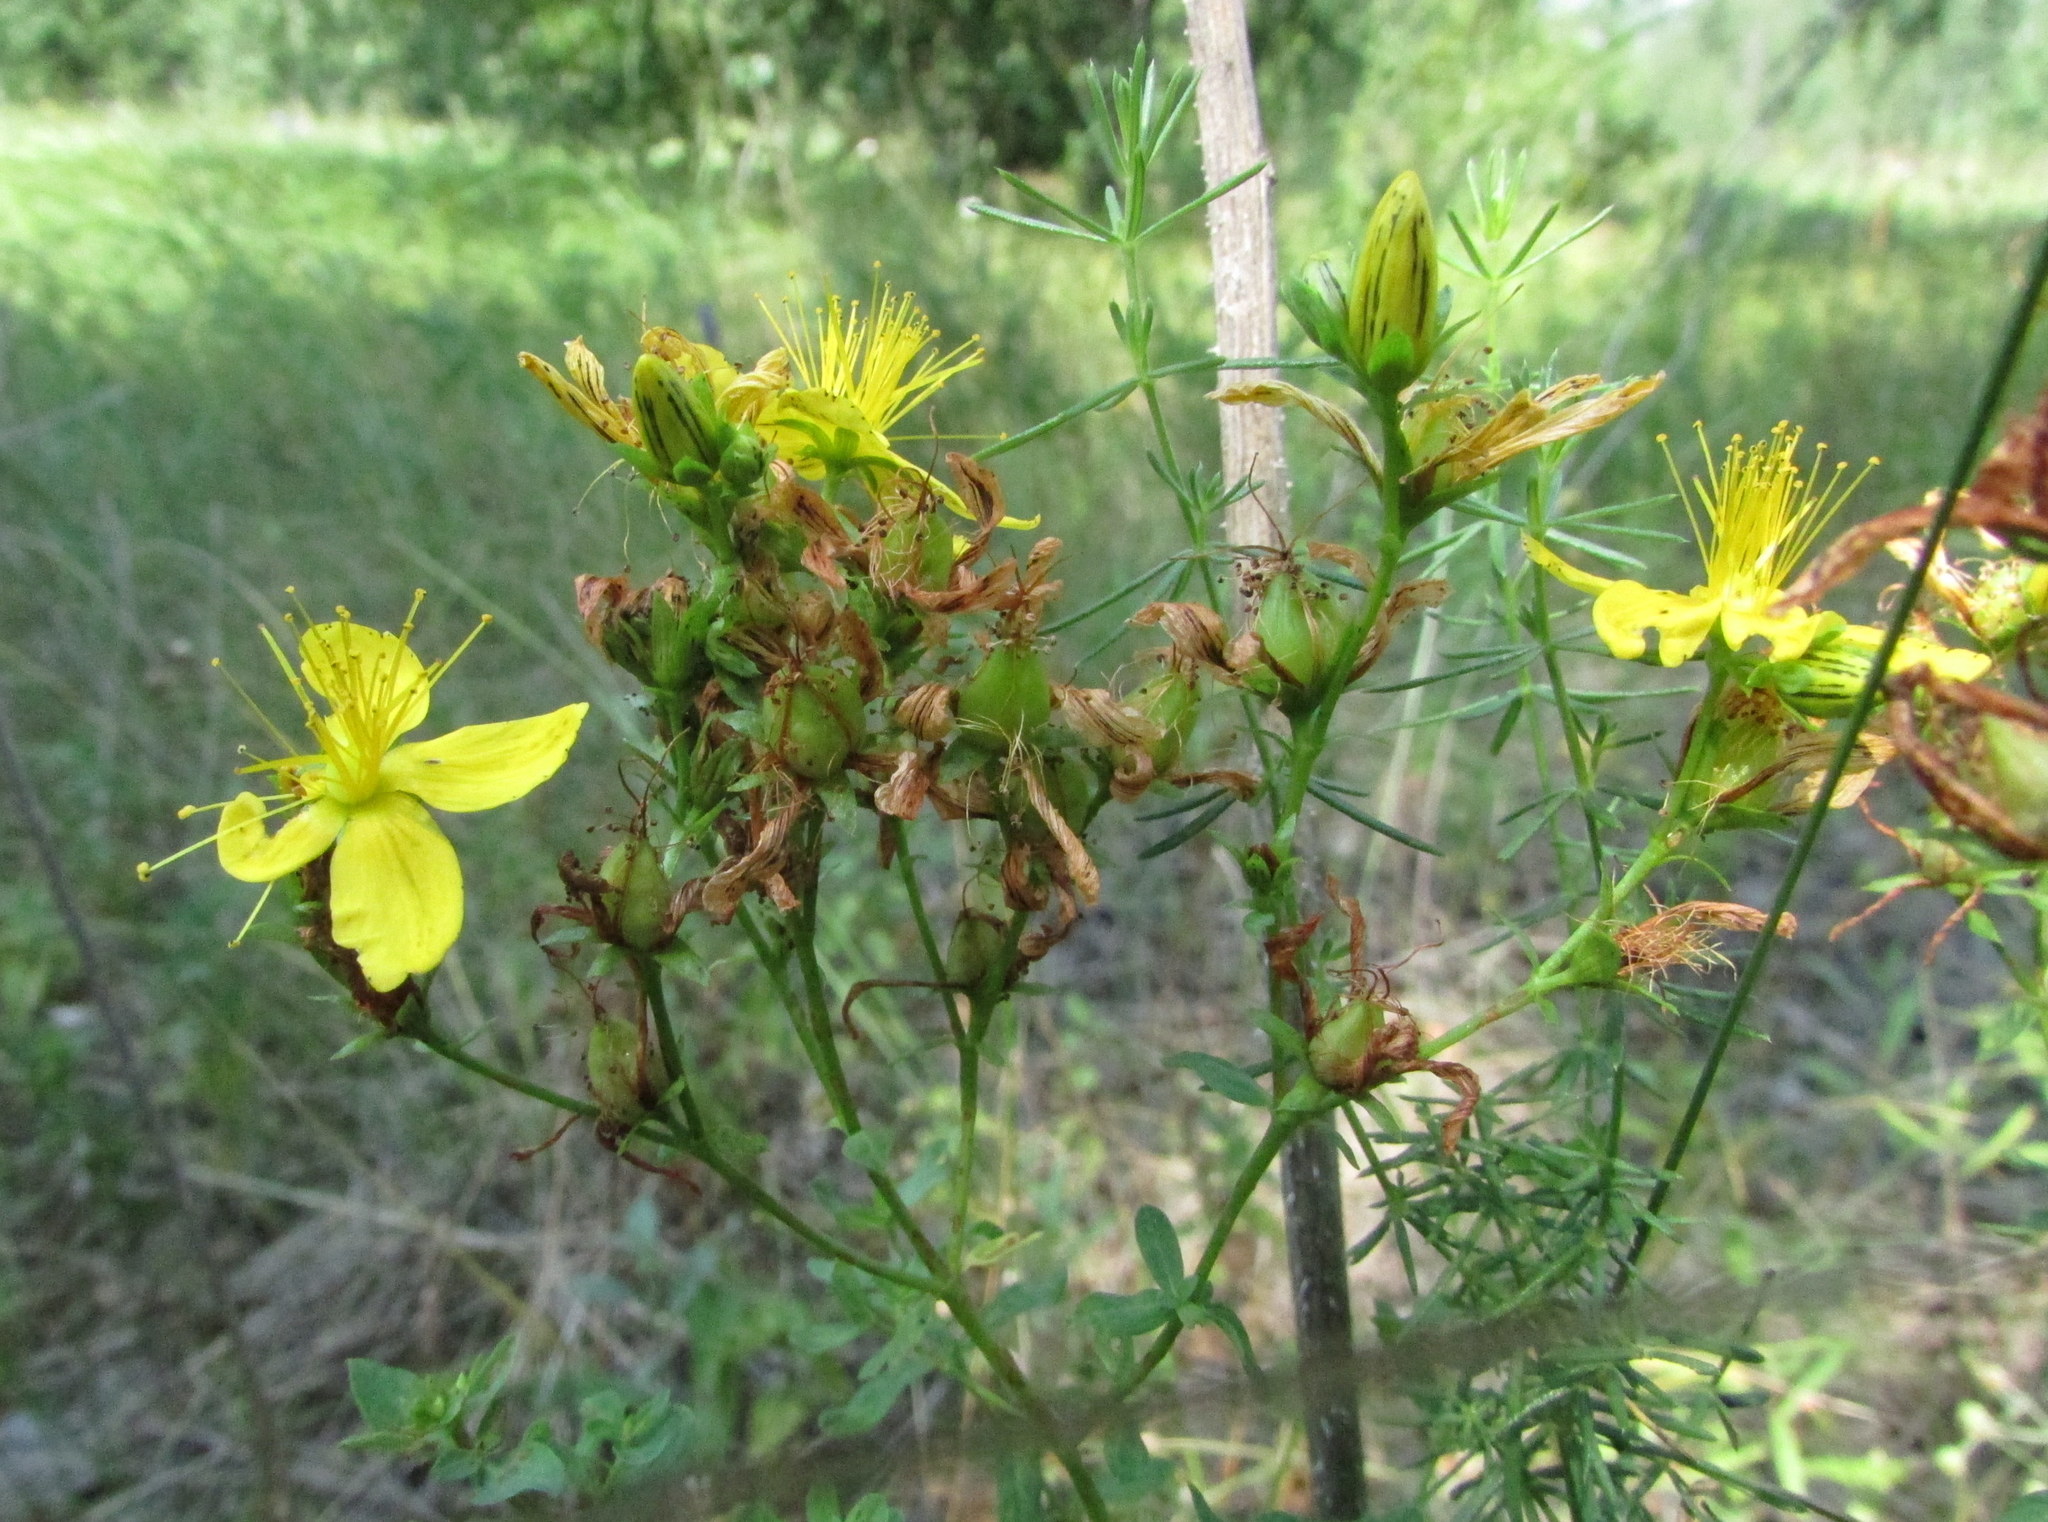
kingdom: Plantae
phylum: Tracheophyta
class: Magnoliopsida
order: Malpighiales
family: Hypericaceae
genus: Hypericum
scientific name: Hypericum perforatum
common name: Common st. johnswort
